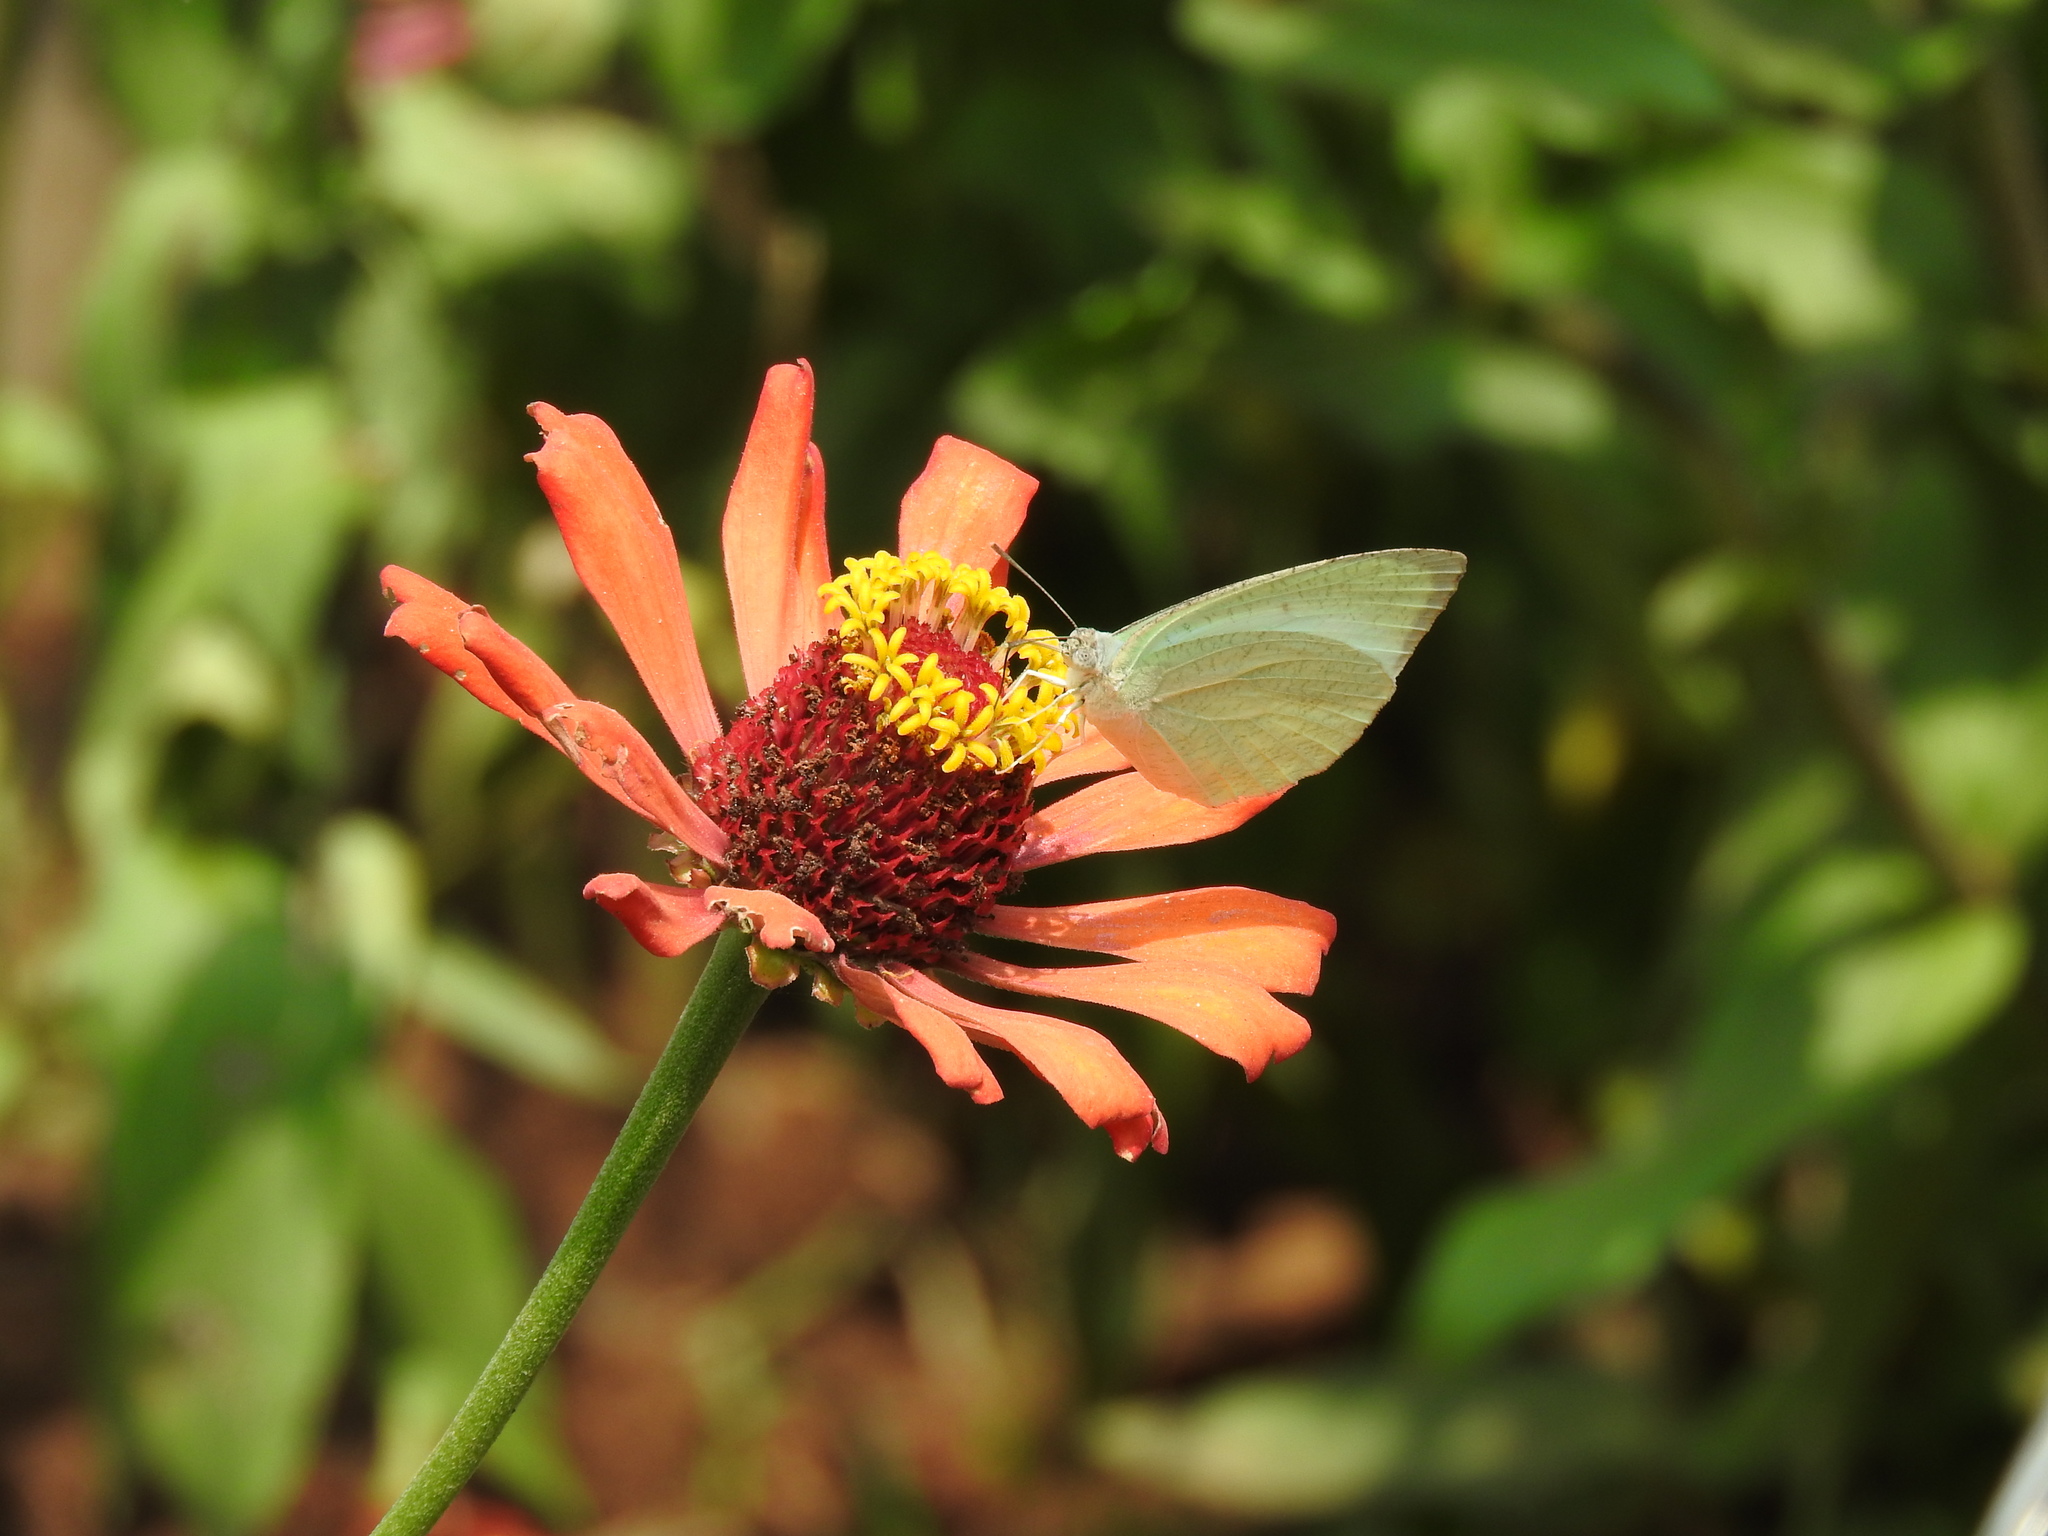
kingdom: Animalia
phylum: Arthropoda
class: Insecta
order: Lepidoptera
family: Pieridae
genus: Catopsilia
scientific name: Catopsilia pyranthe
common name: Mottled emigrant
